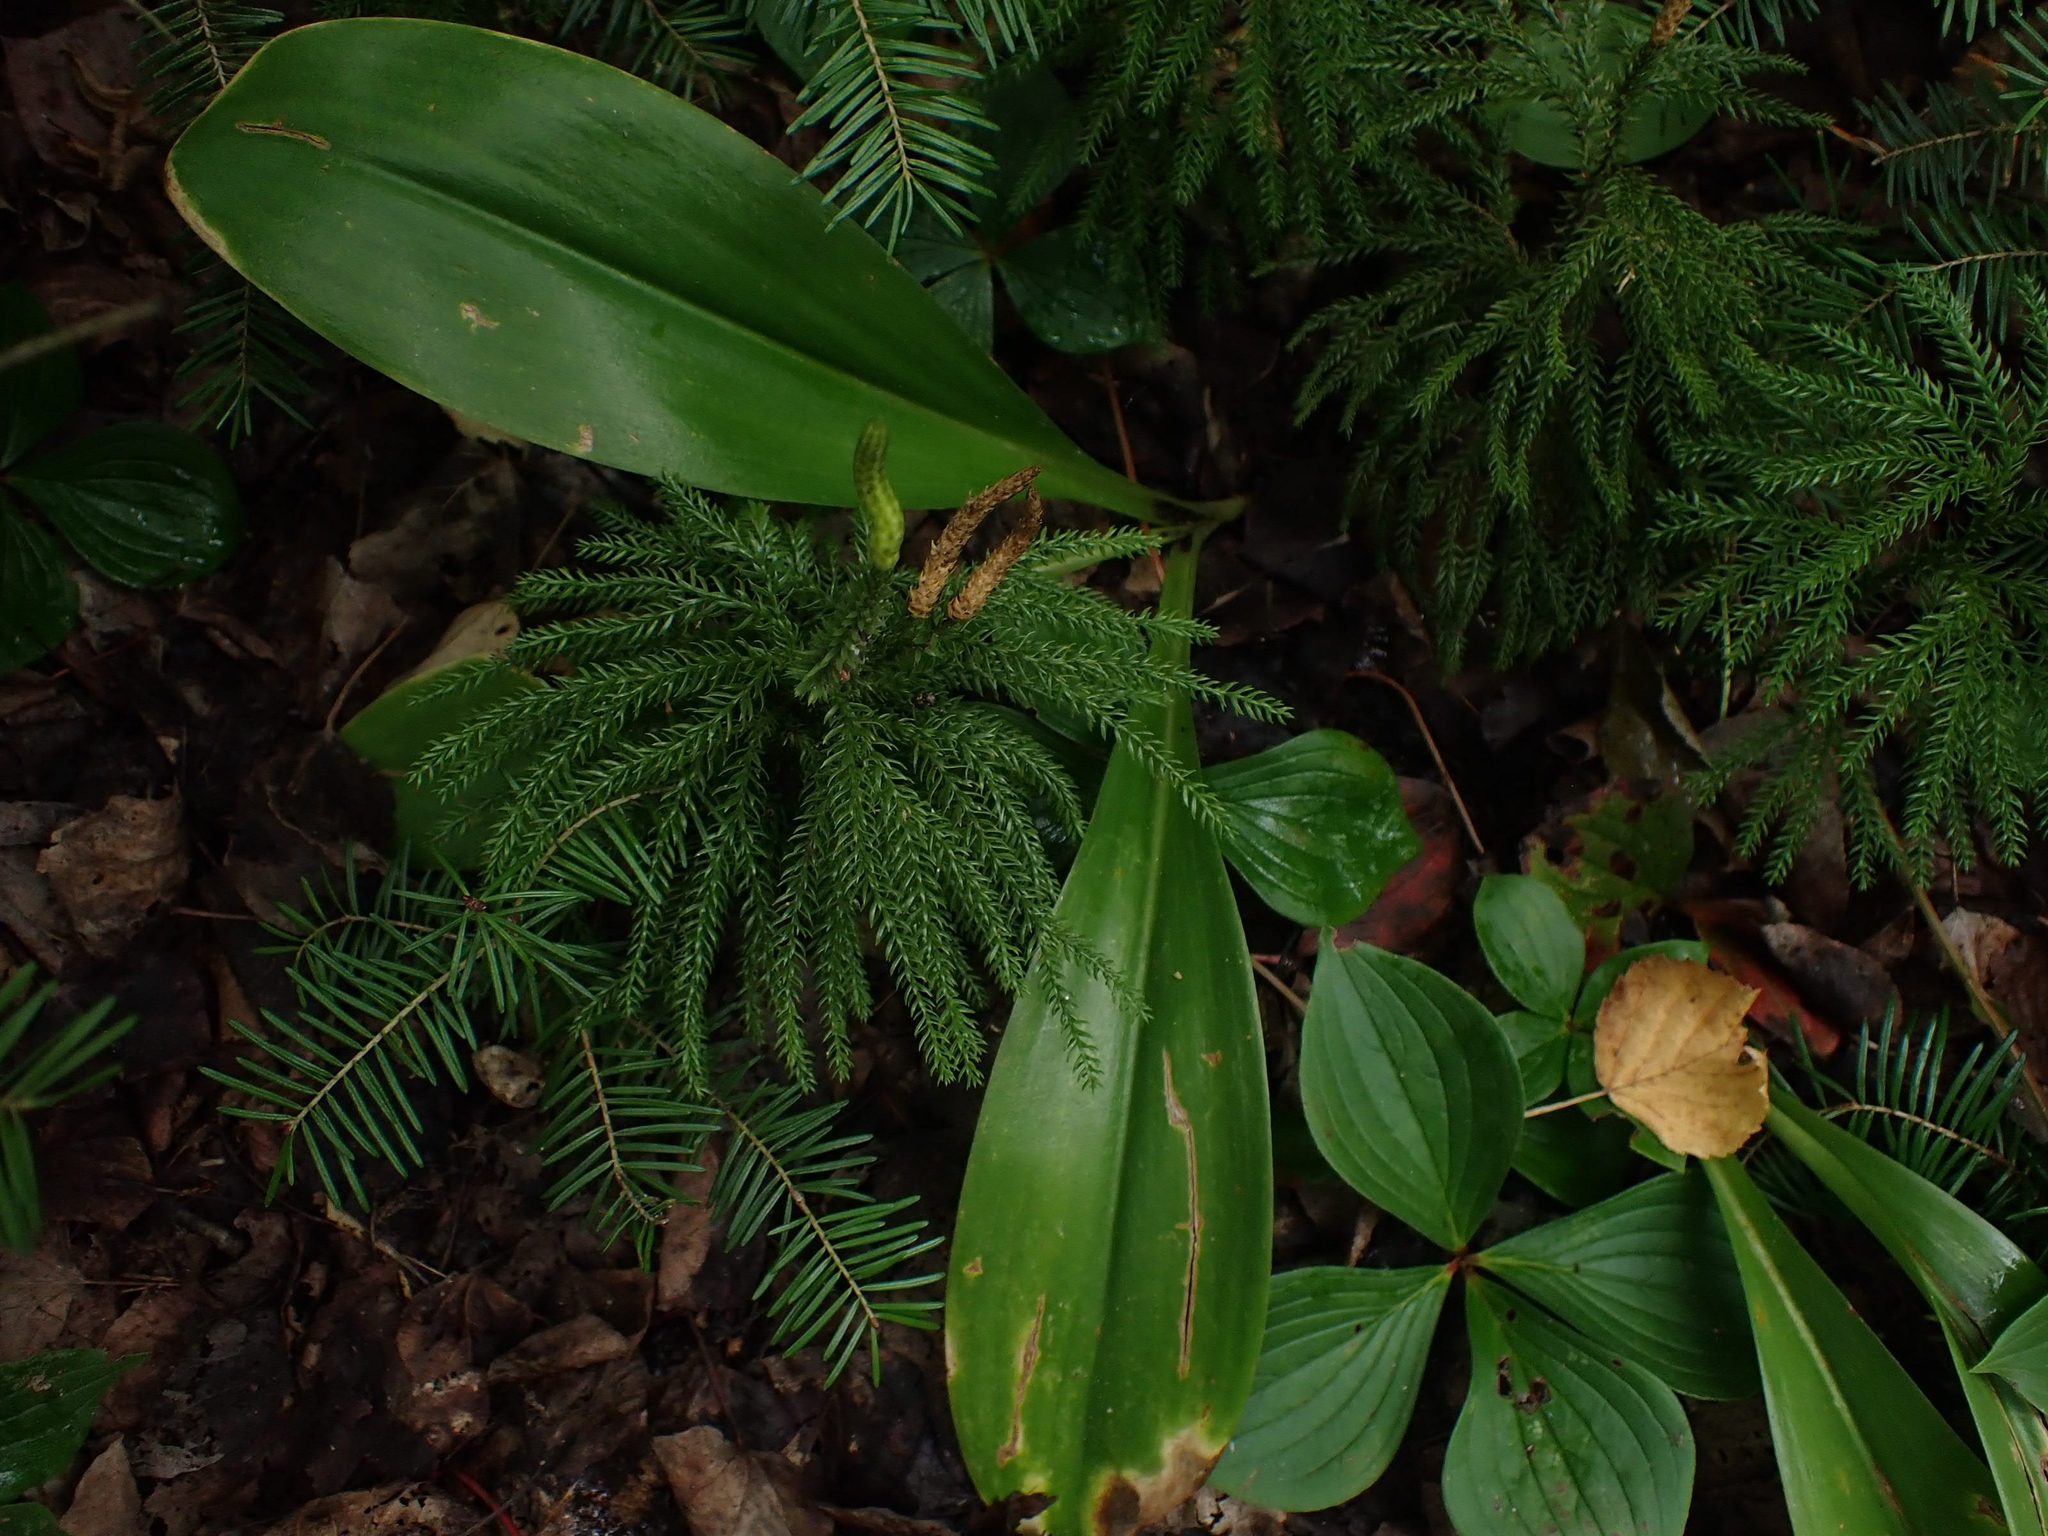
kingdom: Plantae
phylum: Tracheophyta
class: Liliopsida
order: Liliales
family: Liliaceae
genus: Clintonia
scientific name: Clintonia borealis
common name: Yellow clintonia
